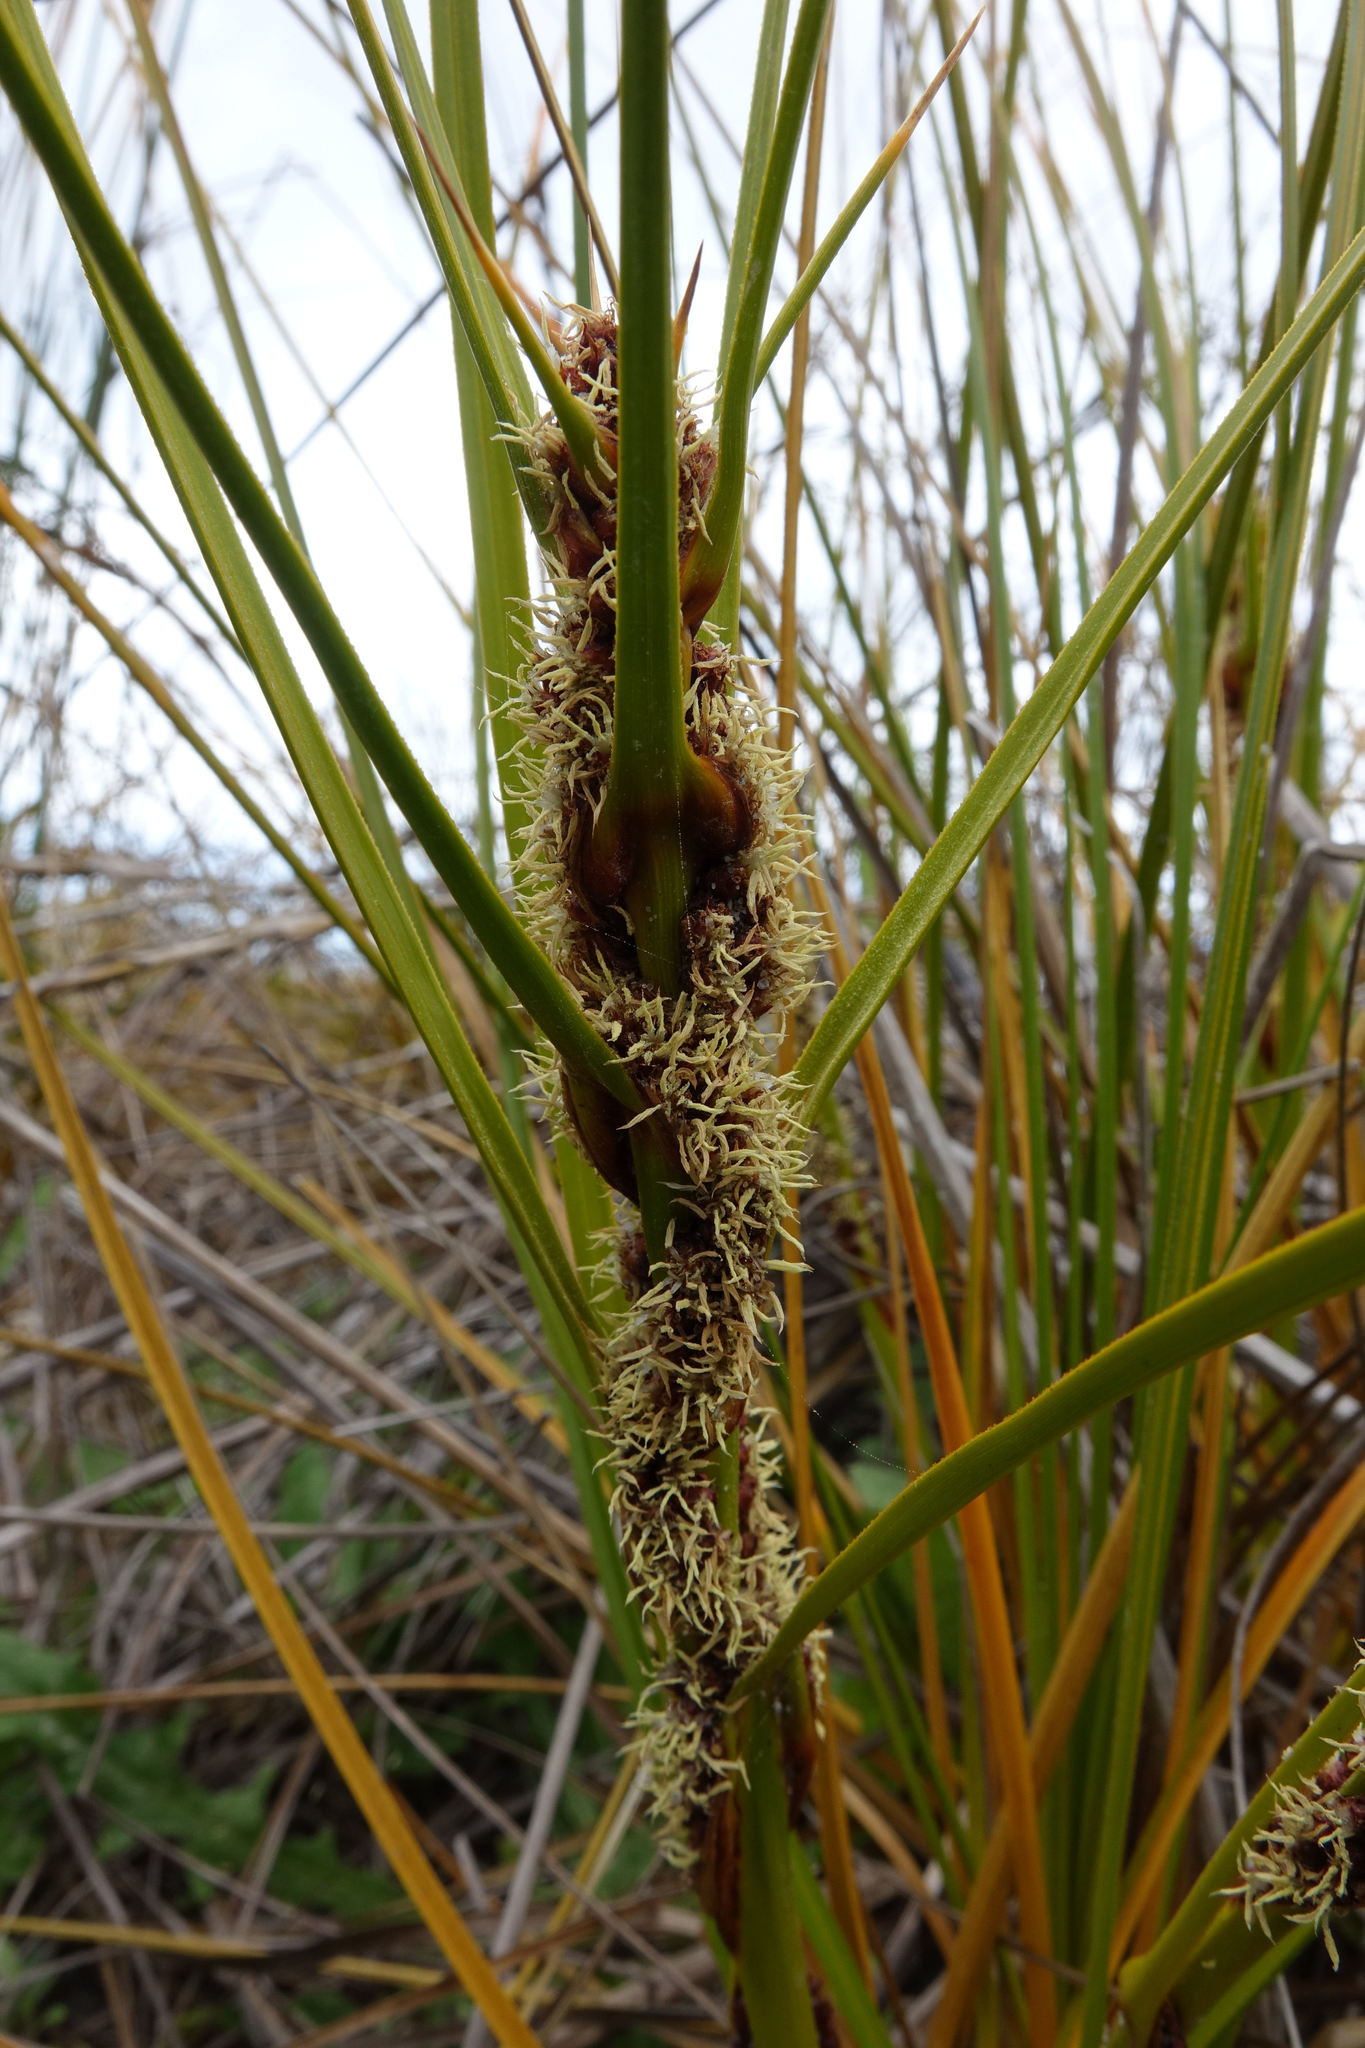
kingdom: Plantae
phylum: Tracheophyta
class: Liliopsida
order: Poales
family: Cyperaceae
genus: Ficinia
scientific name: Ficinia spiralis
